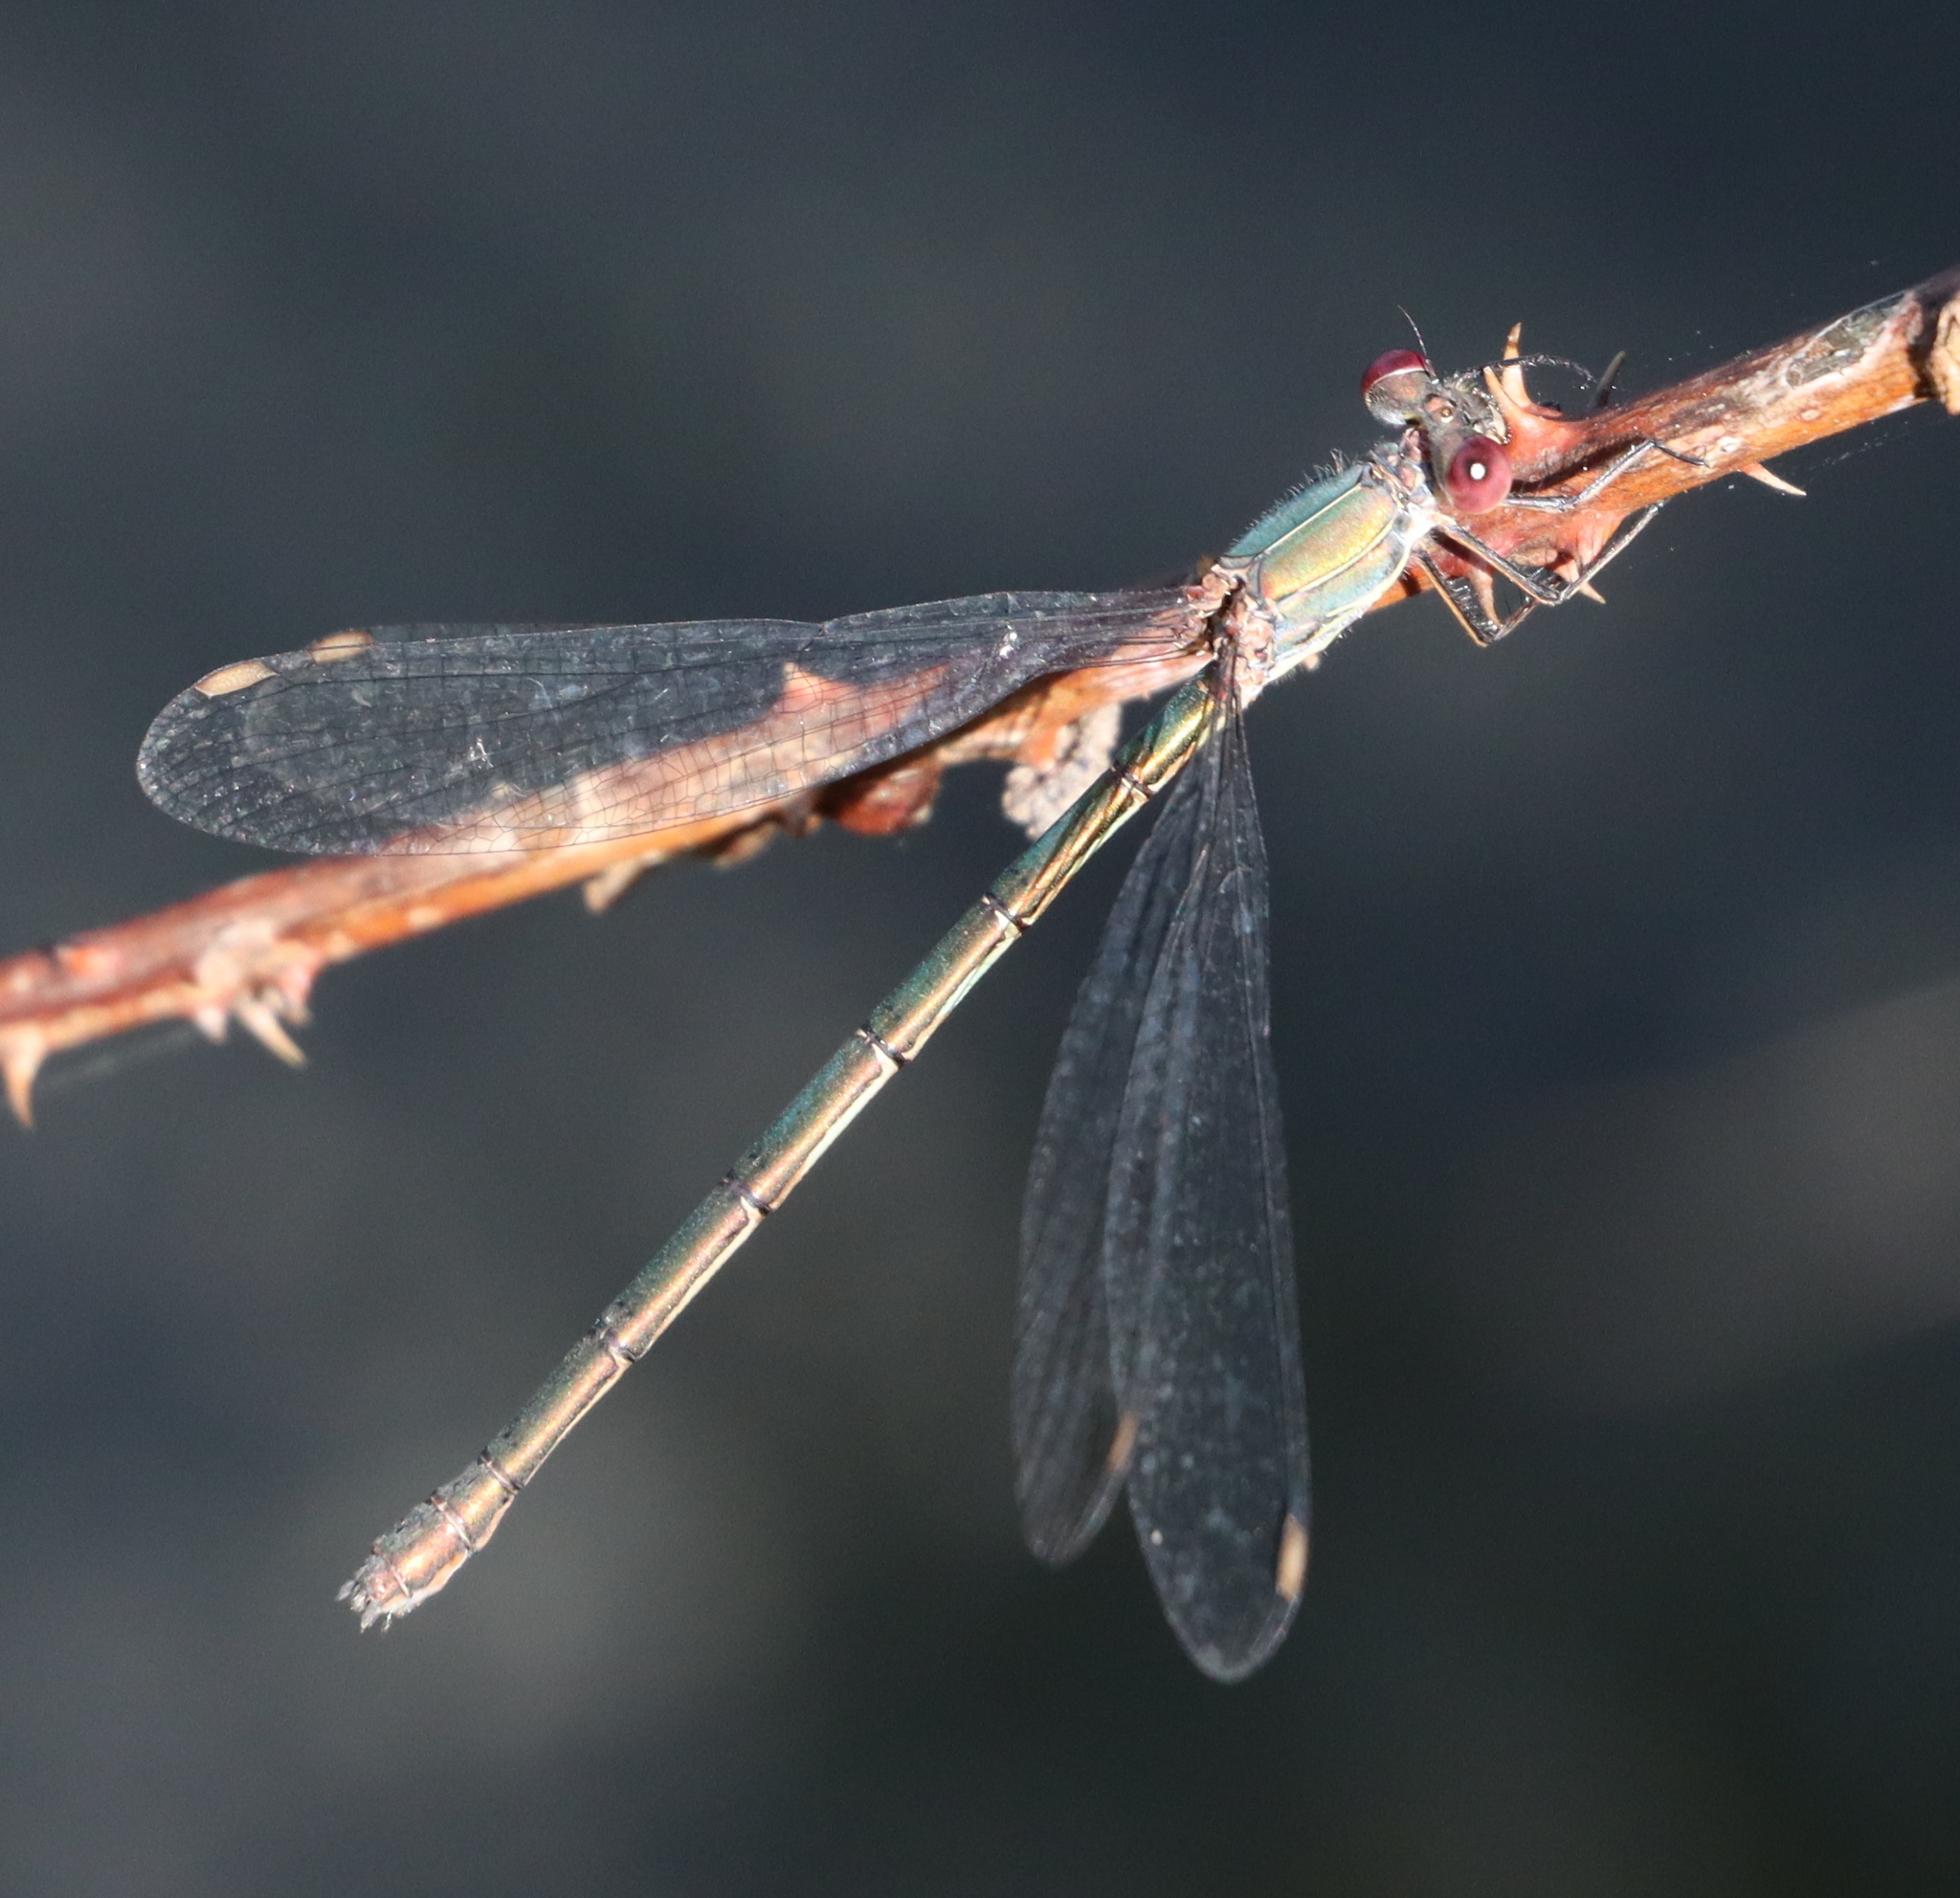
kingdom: Animalia
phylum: Arthropoda
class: Insecta
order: Odonata
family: Lestidae
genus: Chalcolestes
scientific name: Chalcolestes viridis
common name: Green emerald damselfly
